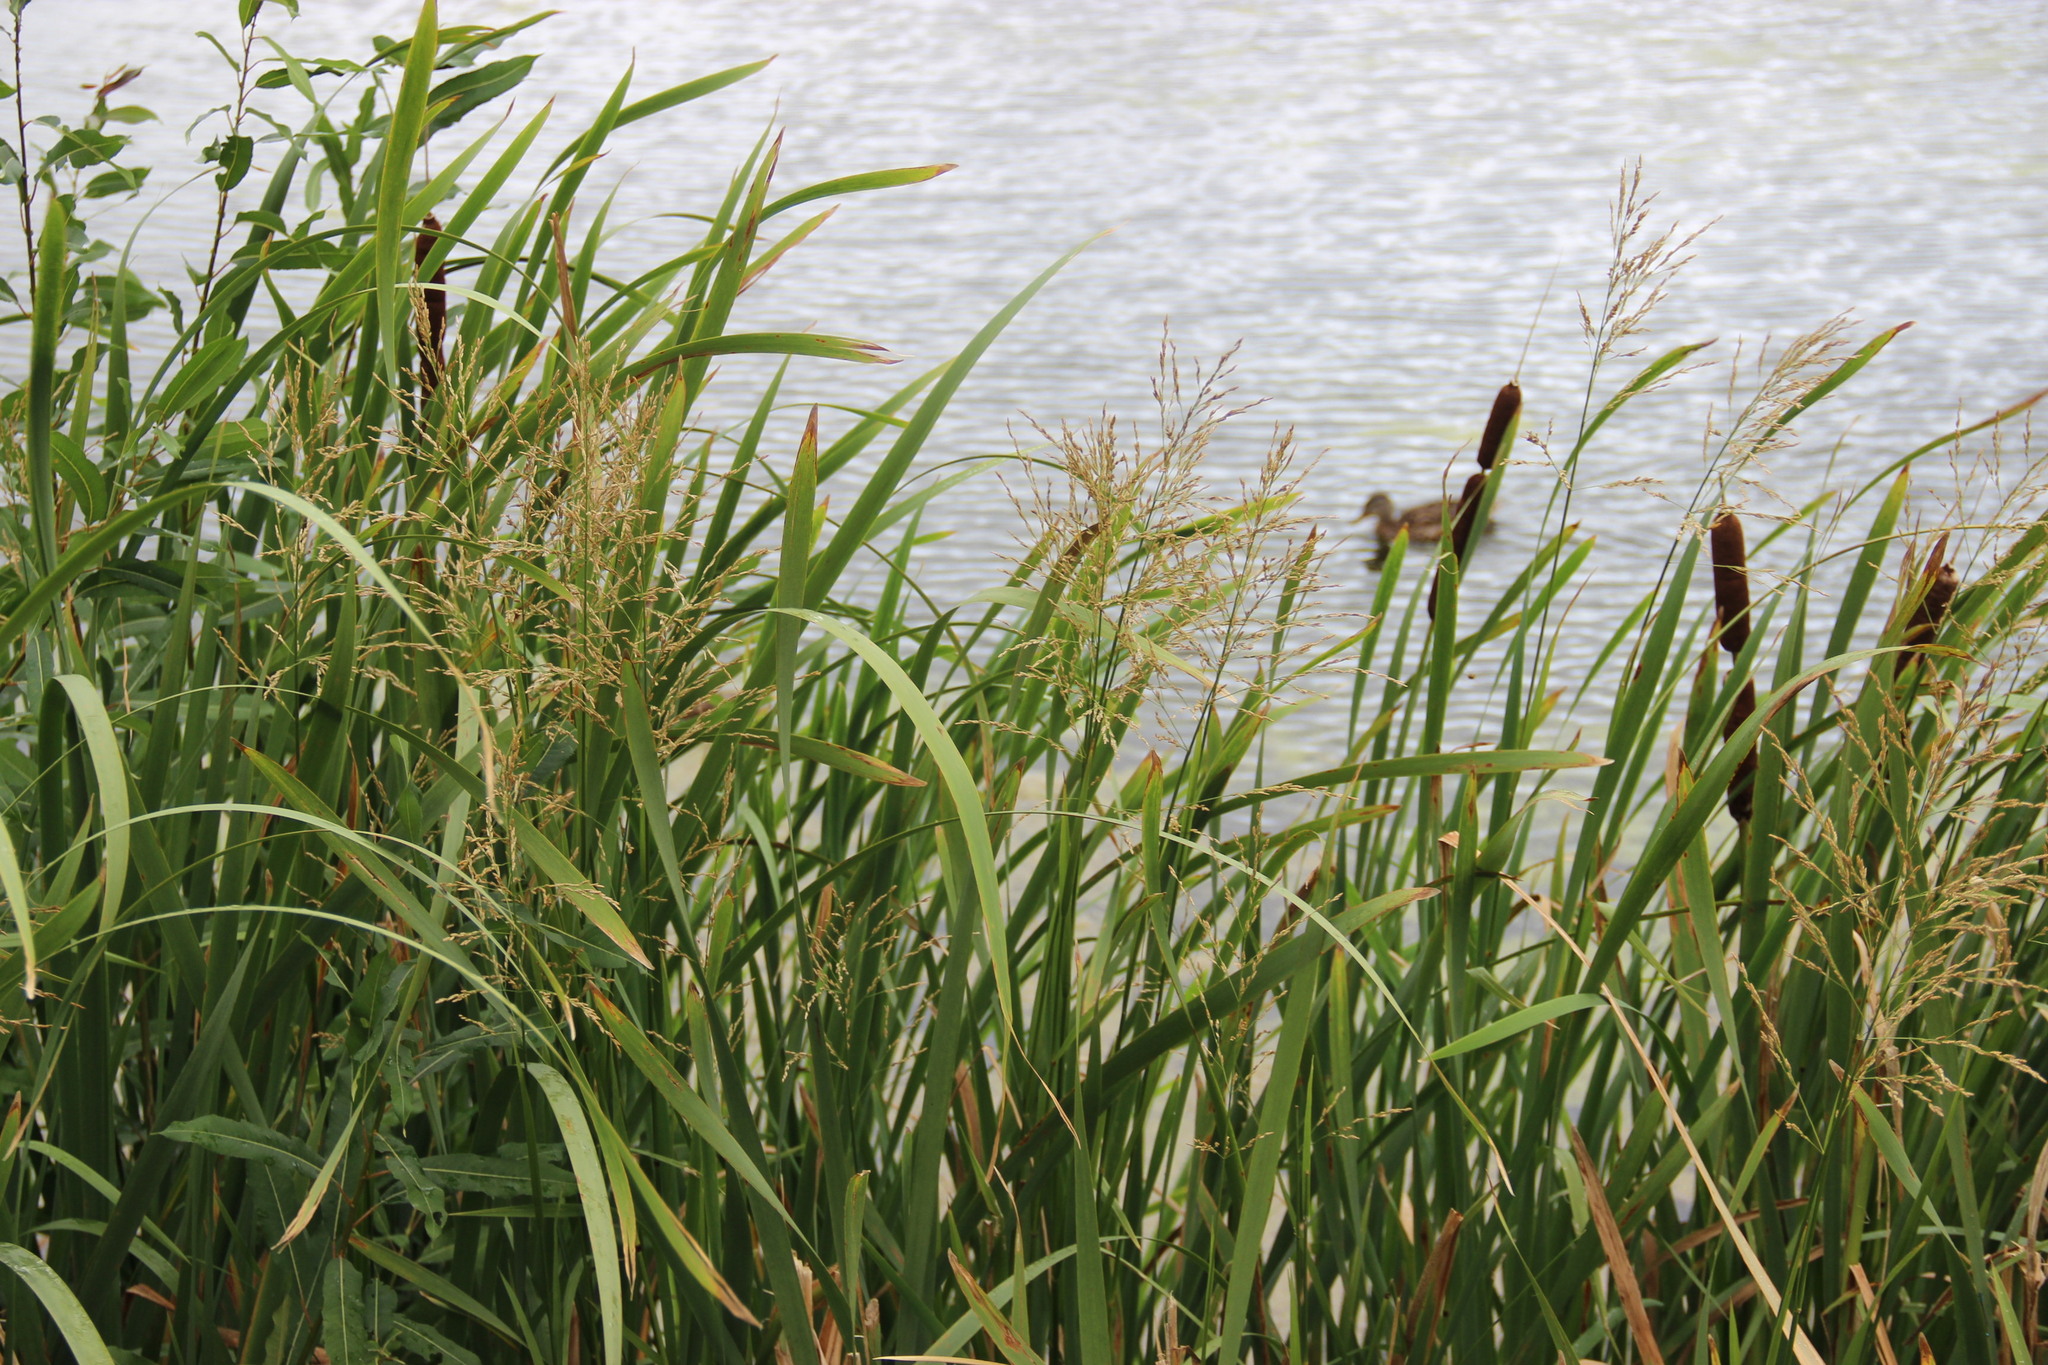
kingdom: Plantae
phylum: Tracheophyta
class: Liliopsida
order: Poales
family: Poaceae
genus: Glyceria
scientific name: Glyceria maxima
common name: Reed mannagrass
